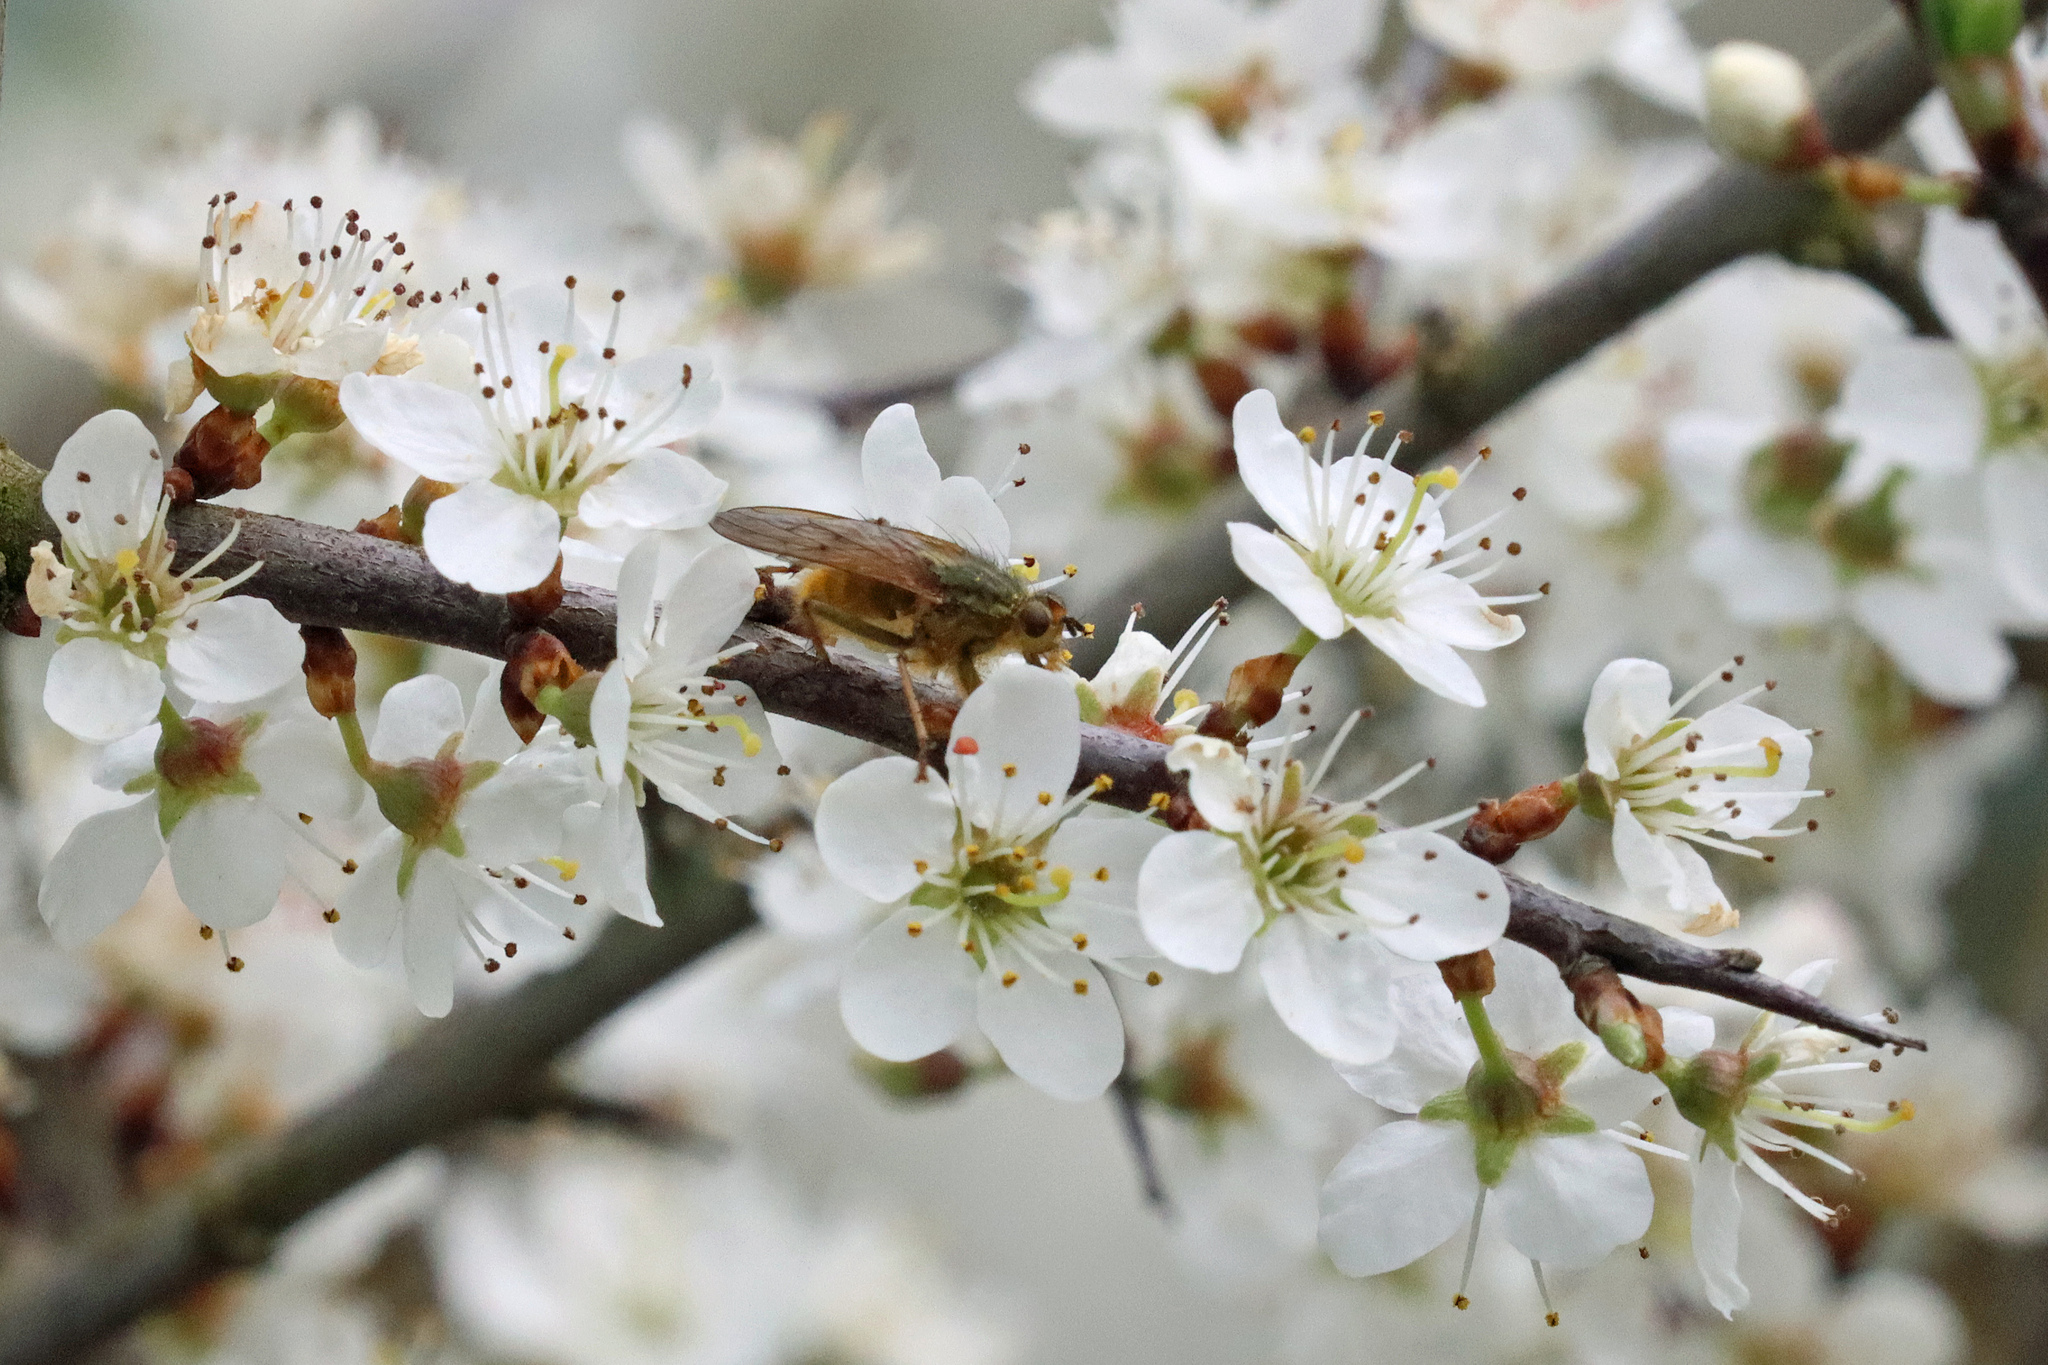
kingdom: Animalia
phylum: Arthropoda
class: Insecta
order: Diptera
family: Scathophagidae
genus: Scathophaga
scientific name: Scathophaga stercoraria
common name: Yellow dung fly
